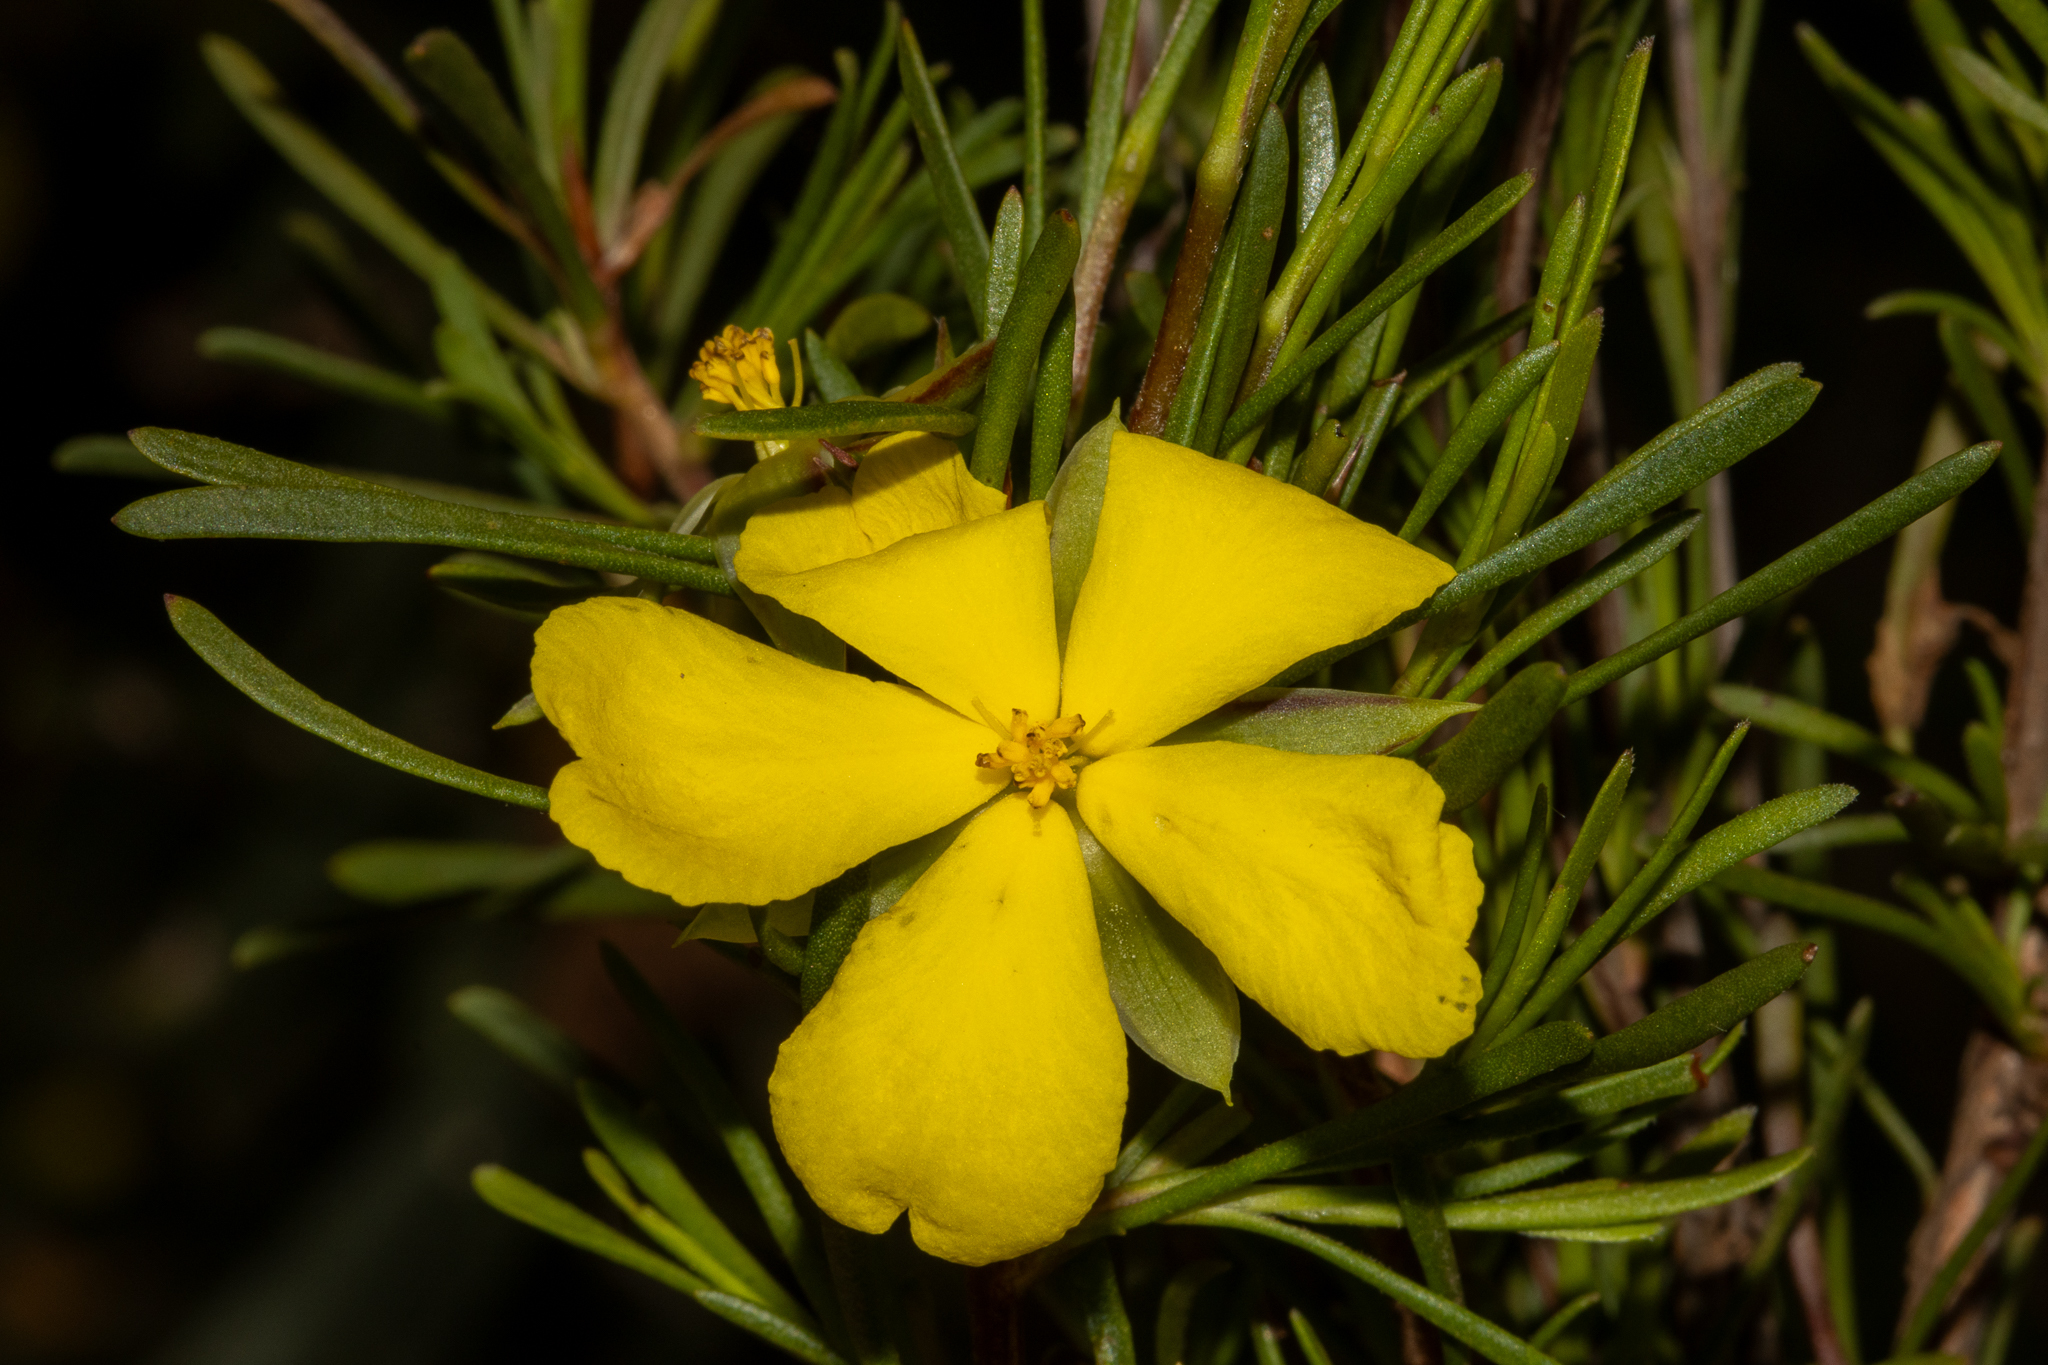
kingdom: Plantae
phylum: Tracheophyta
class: Magnoliopsida
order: Dilleniales
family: Dilleniaceae
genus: Hibbertia
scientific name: Hibbertia virgata
